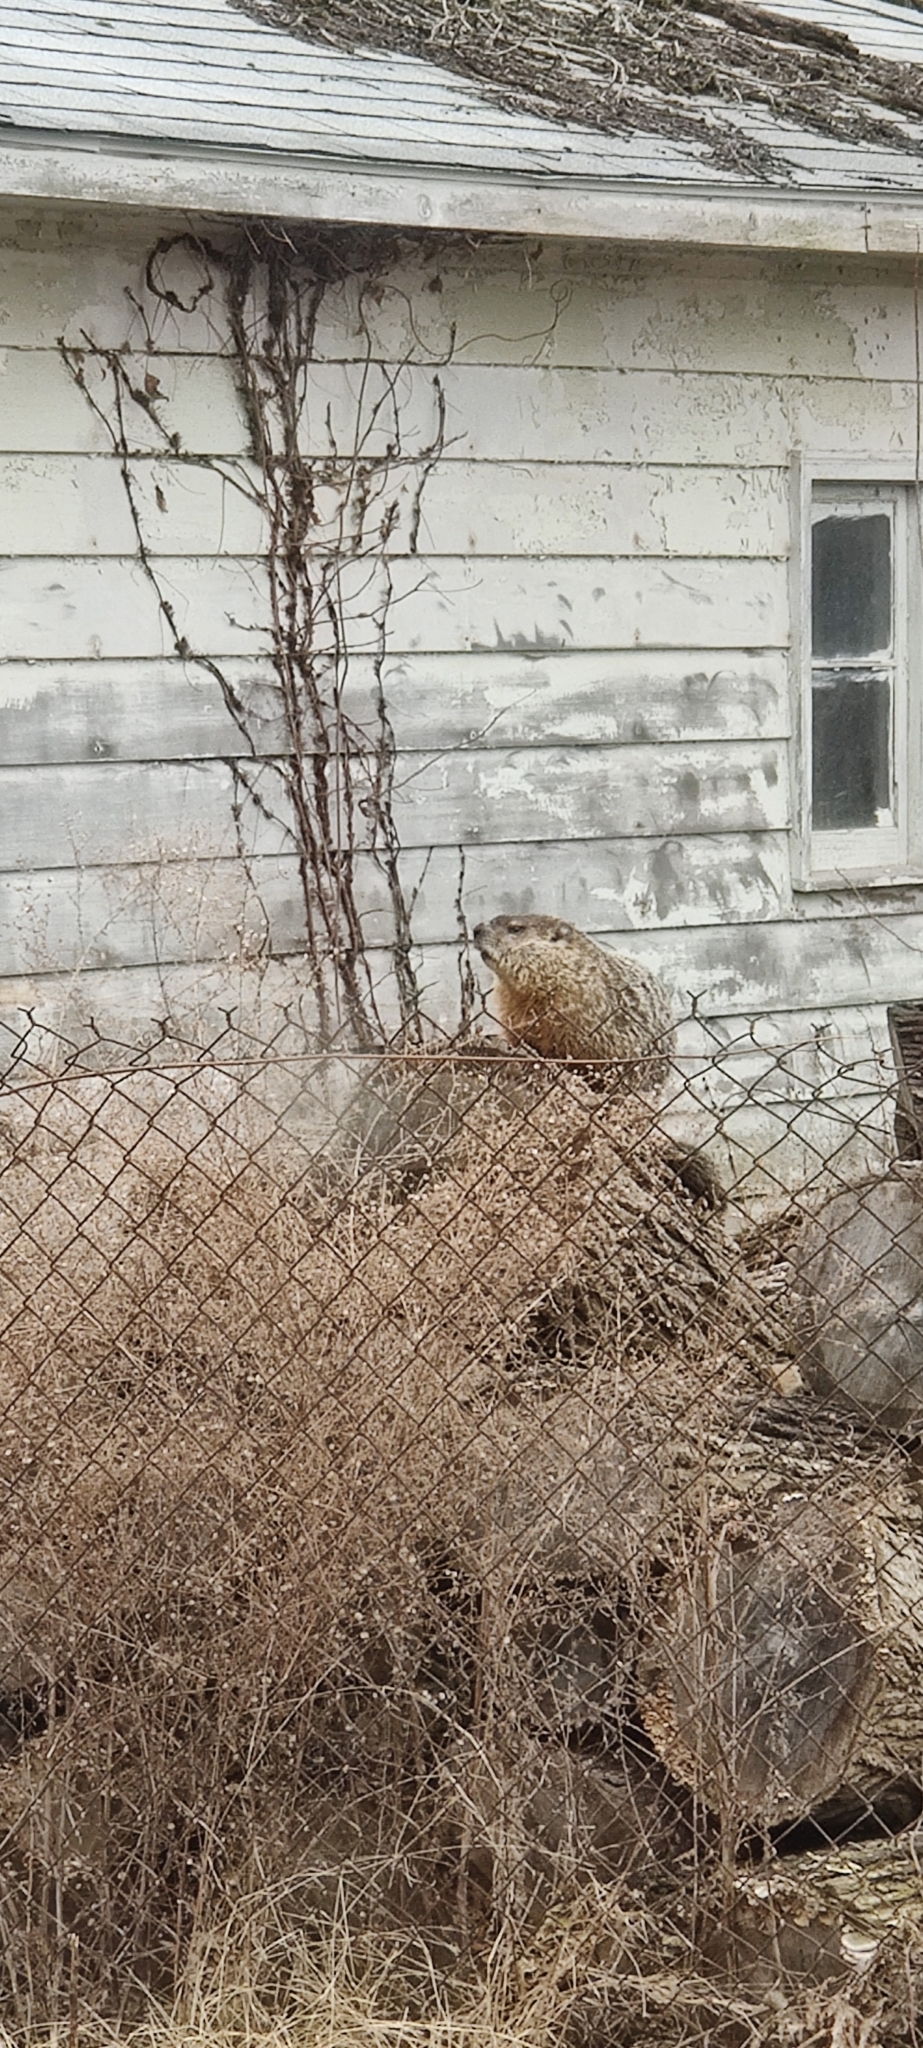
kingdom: Animalia
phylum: Chordata
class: Mammalia
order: Rodentia
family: Sciuridae
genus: Marmota
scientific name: Marmota monax
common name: Groundhog
